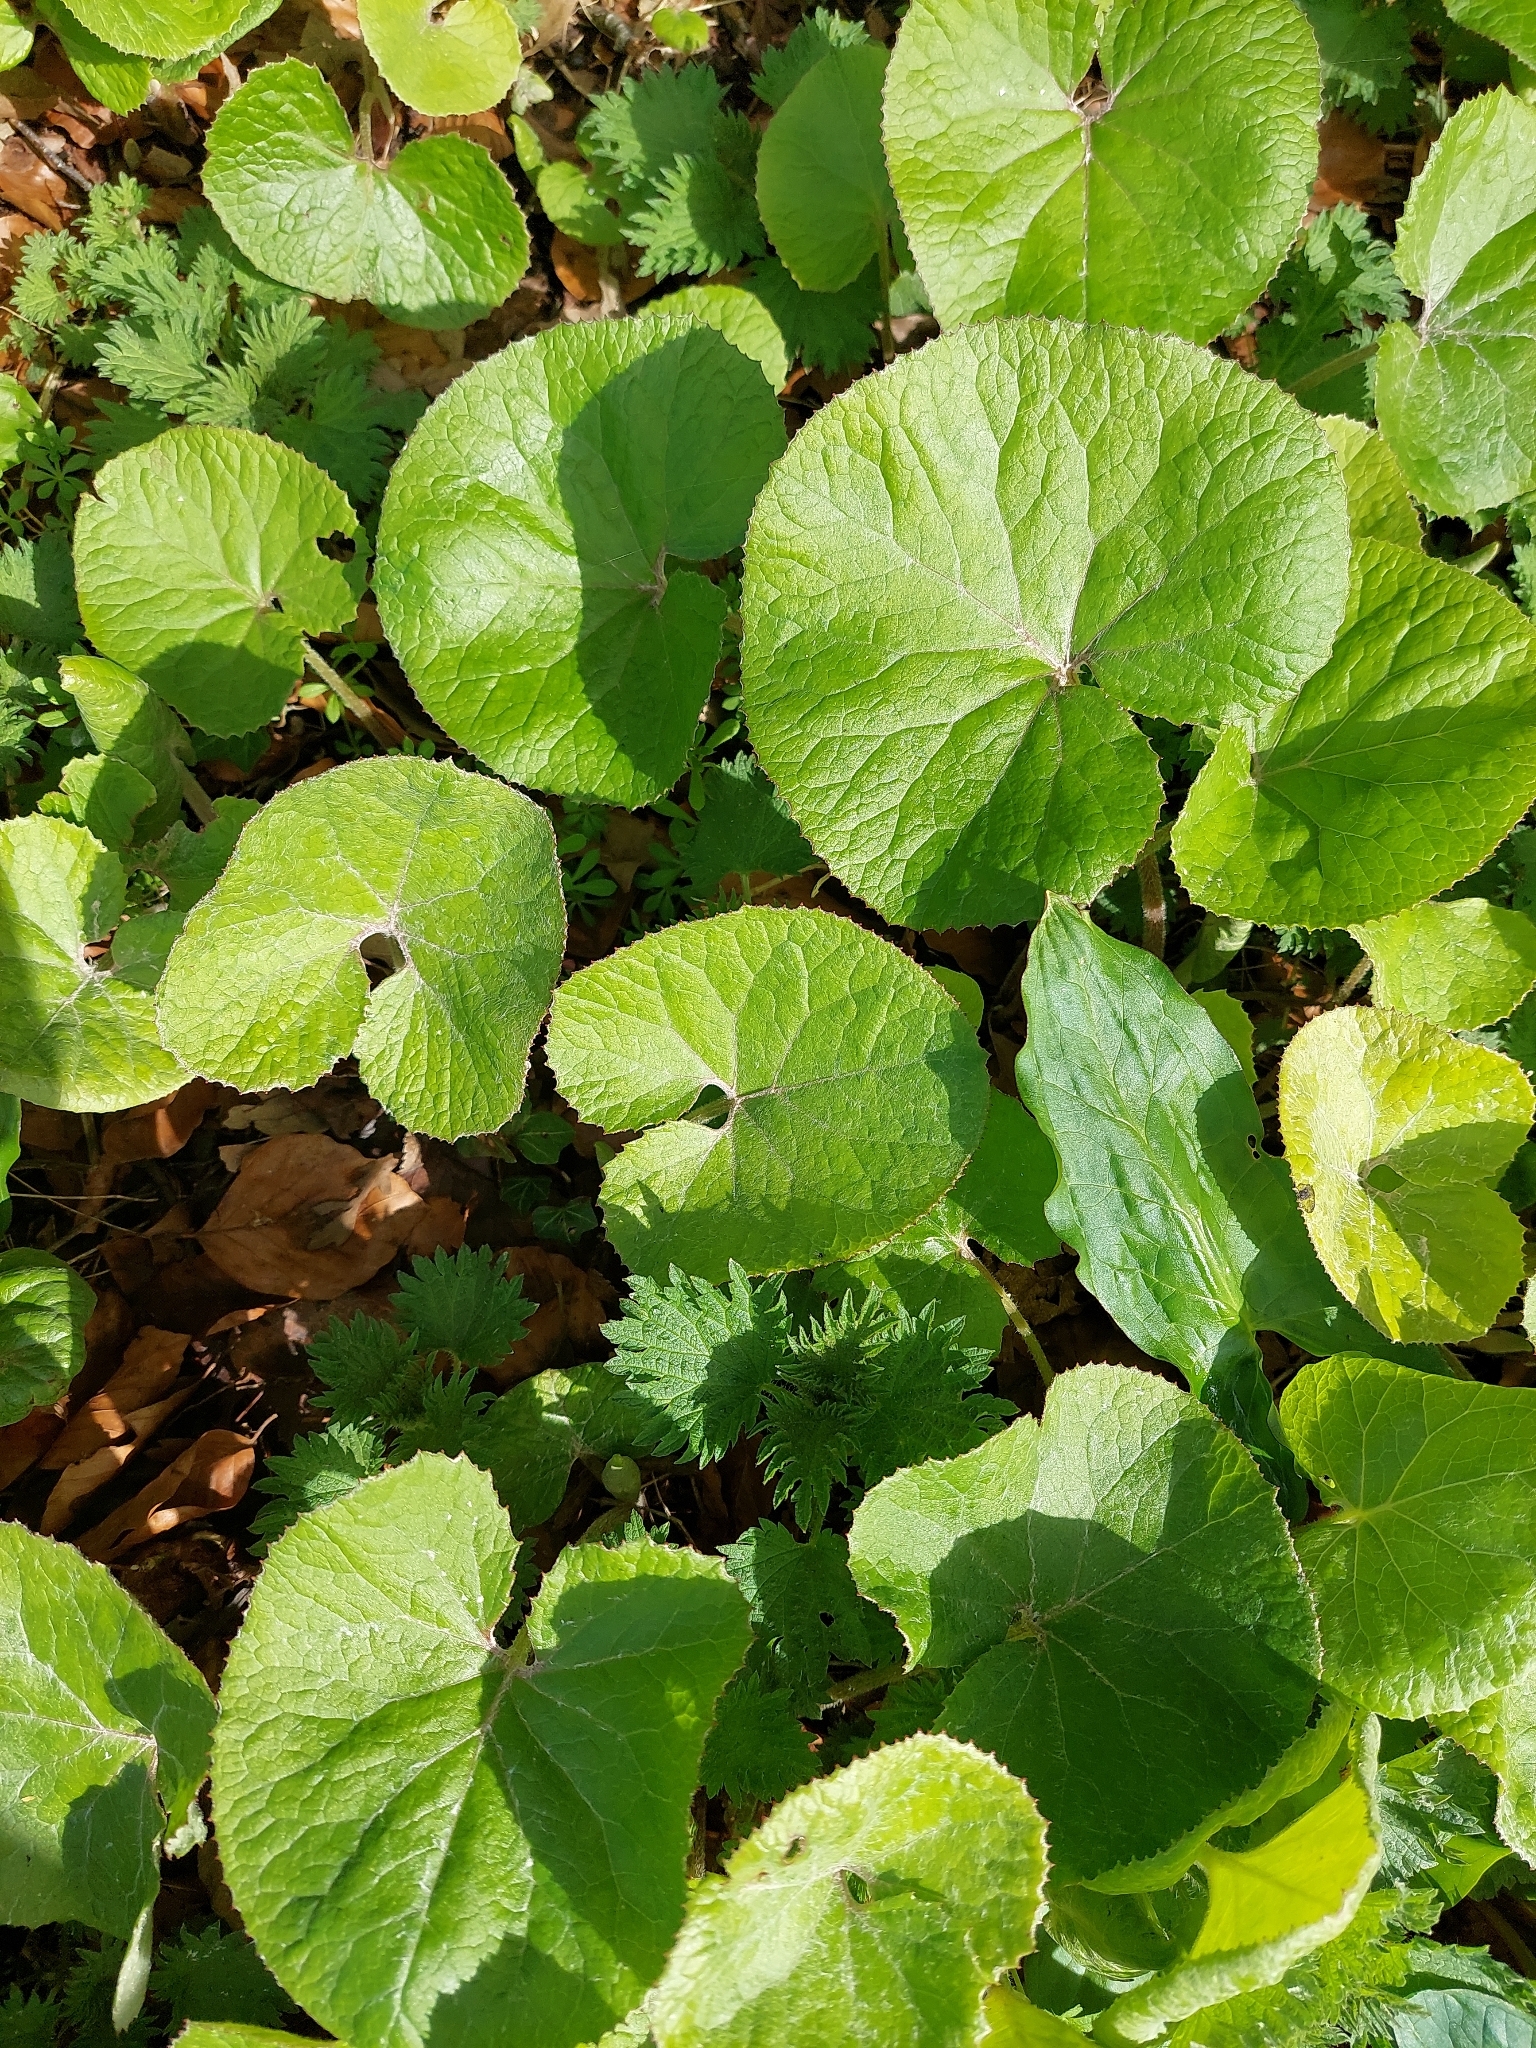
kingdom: Plantae
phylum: Tracheophyta
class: Magnoliopsida
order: Asterales
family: Asteraceae
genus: Petasites
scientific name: Petasites pyrenaicus
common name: Winter heliotrope
